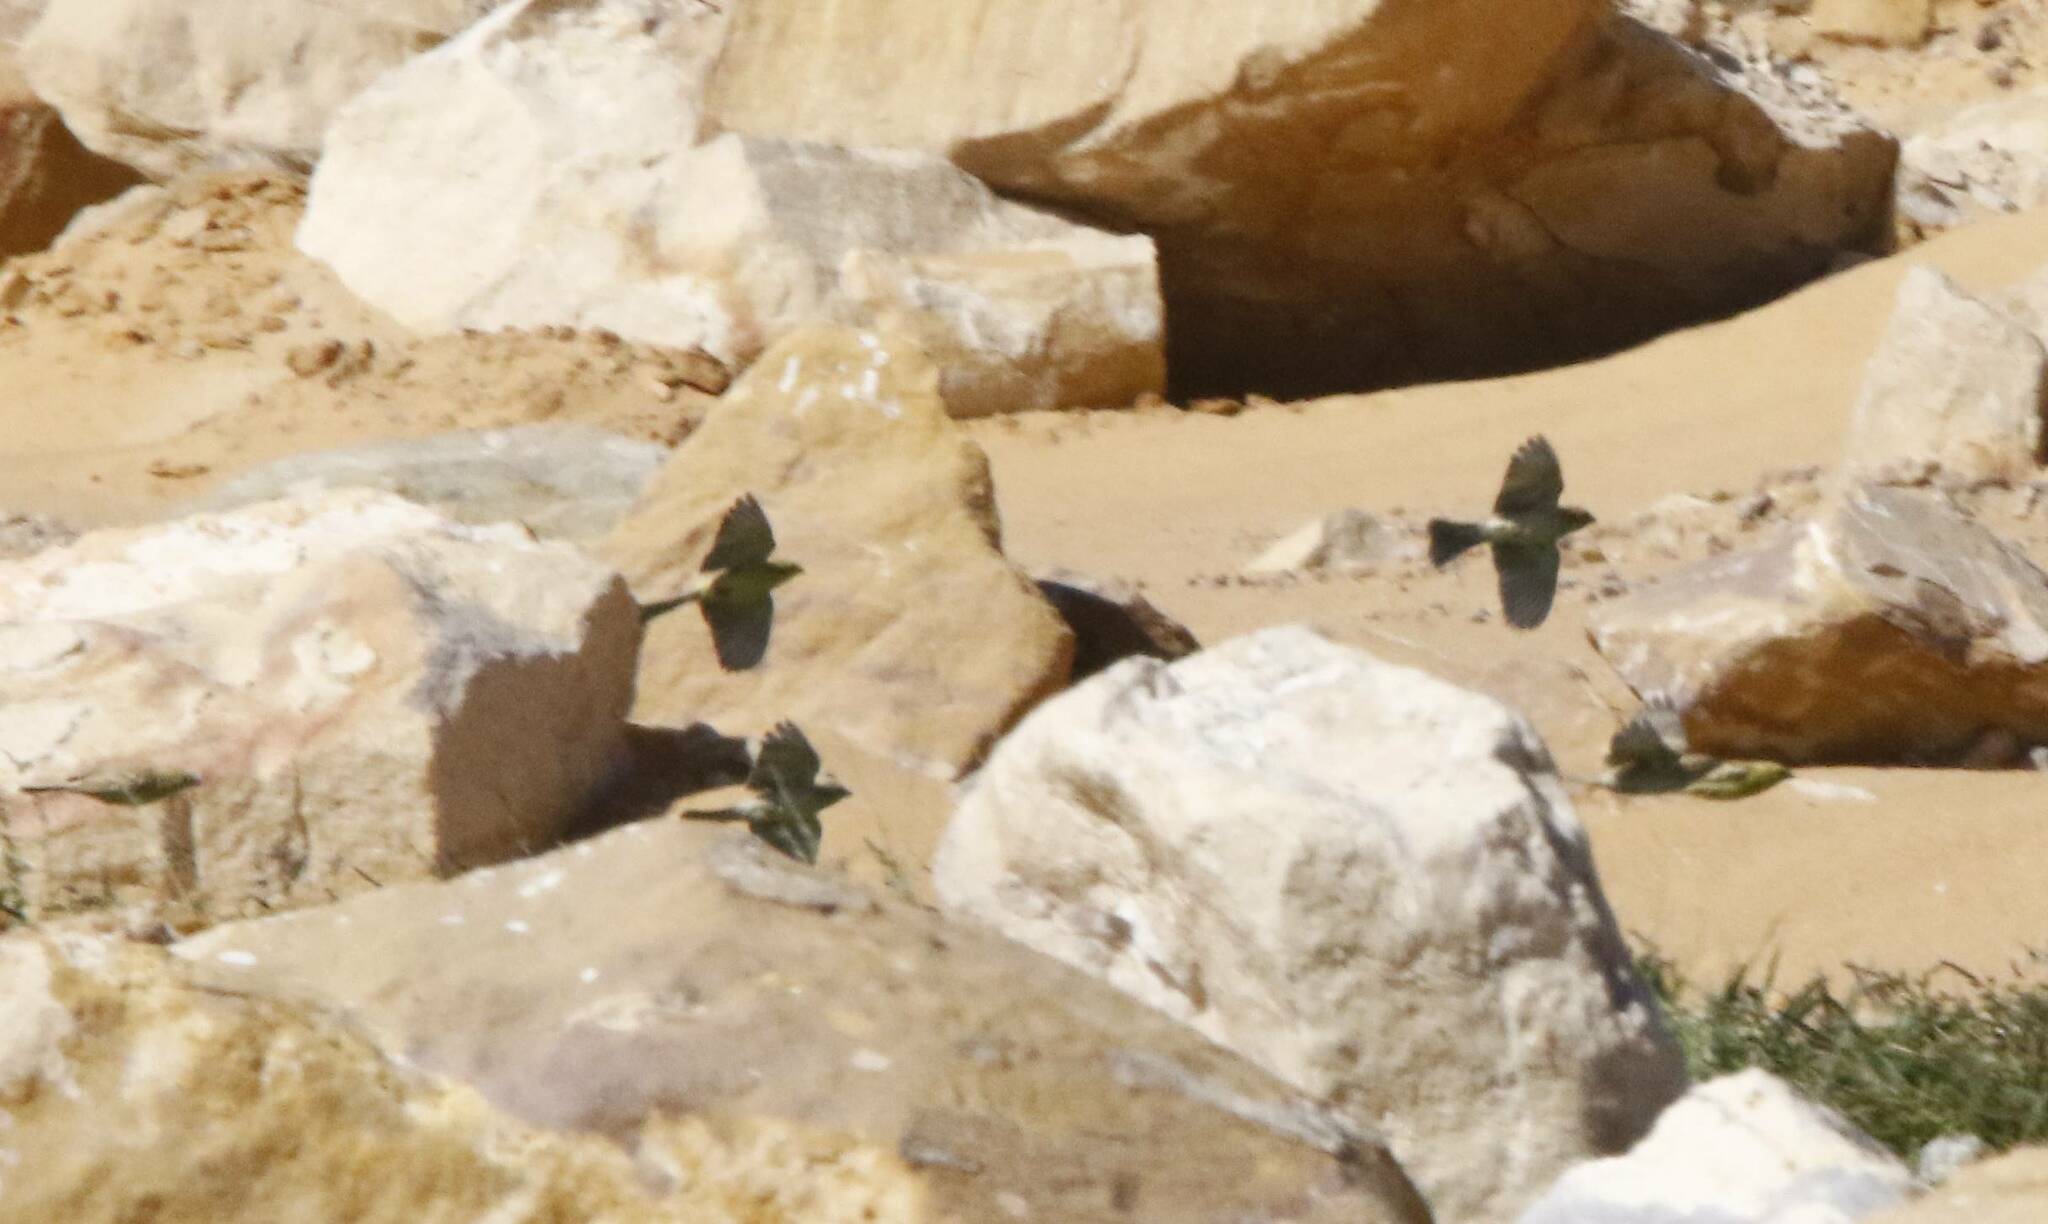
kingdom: Animalia
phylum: Chordata
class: Aves
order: Passeriformes
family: Passeridae
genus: Passer
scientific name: Passer luteus
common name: Sudan golden sparrow
